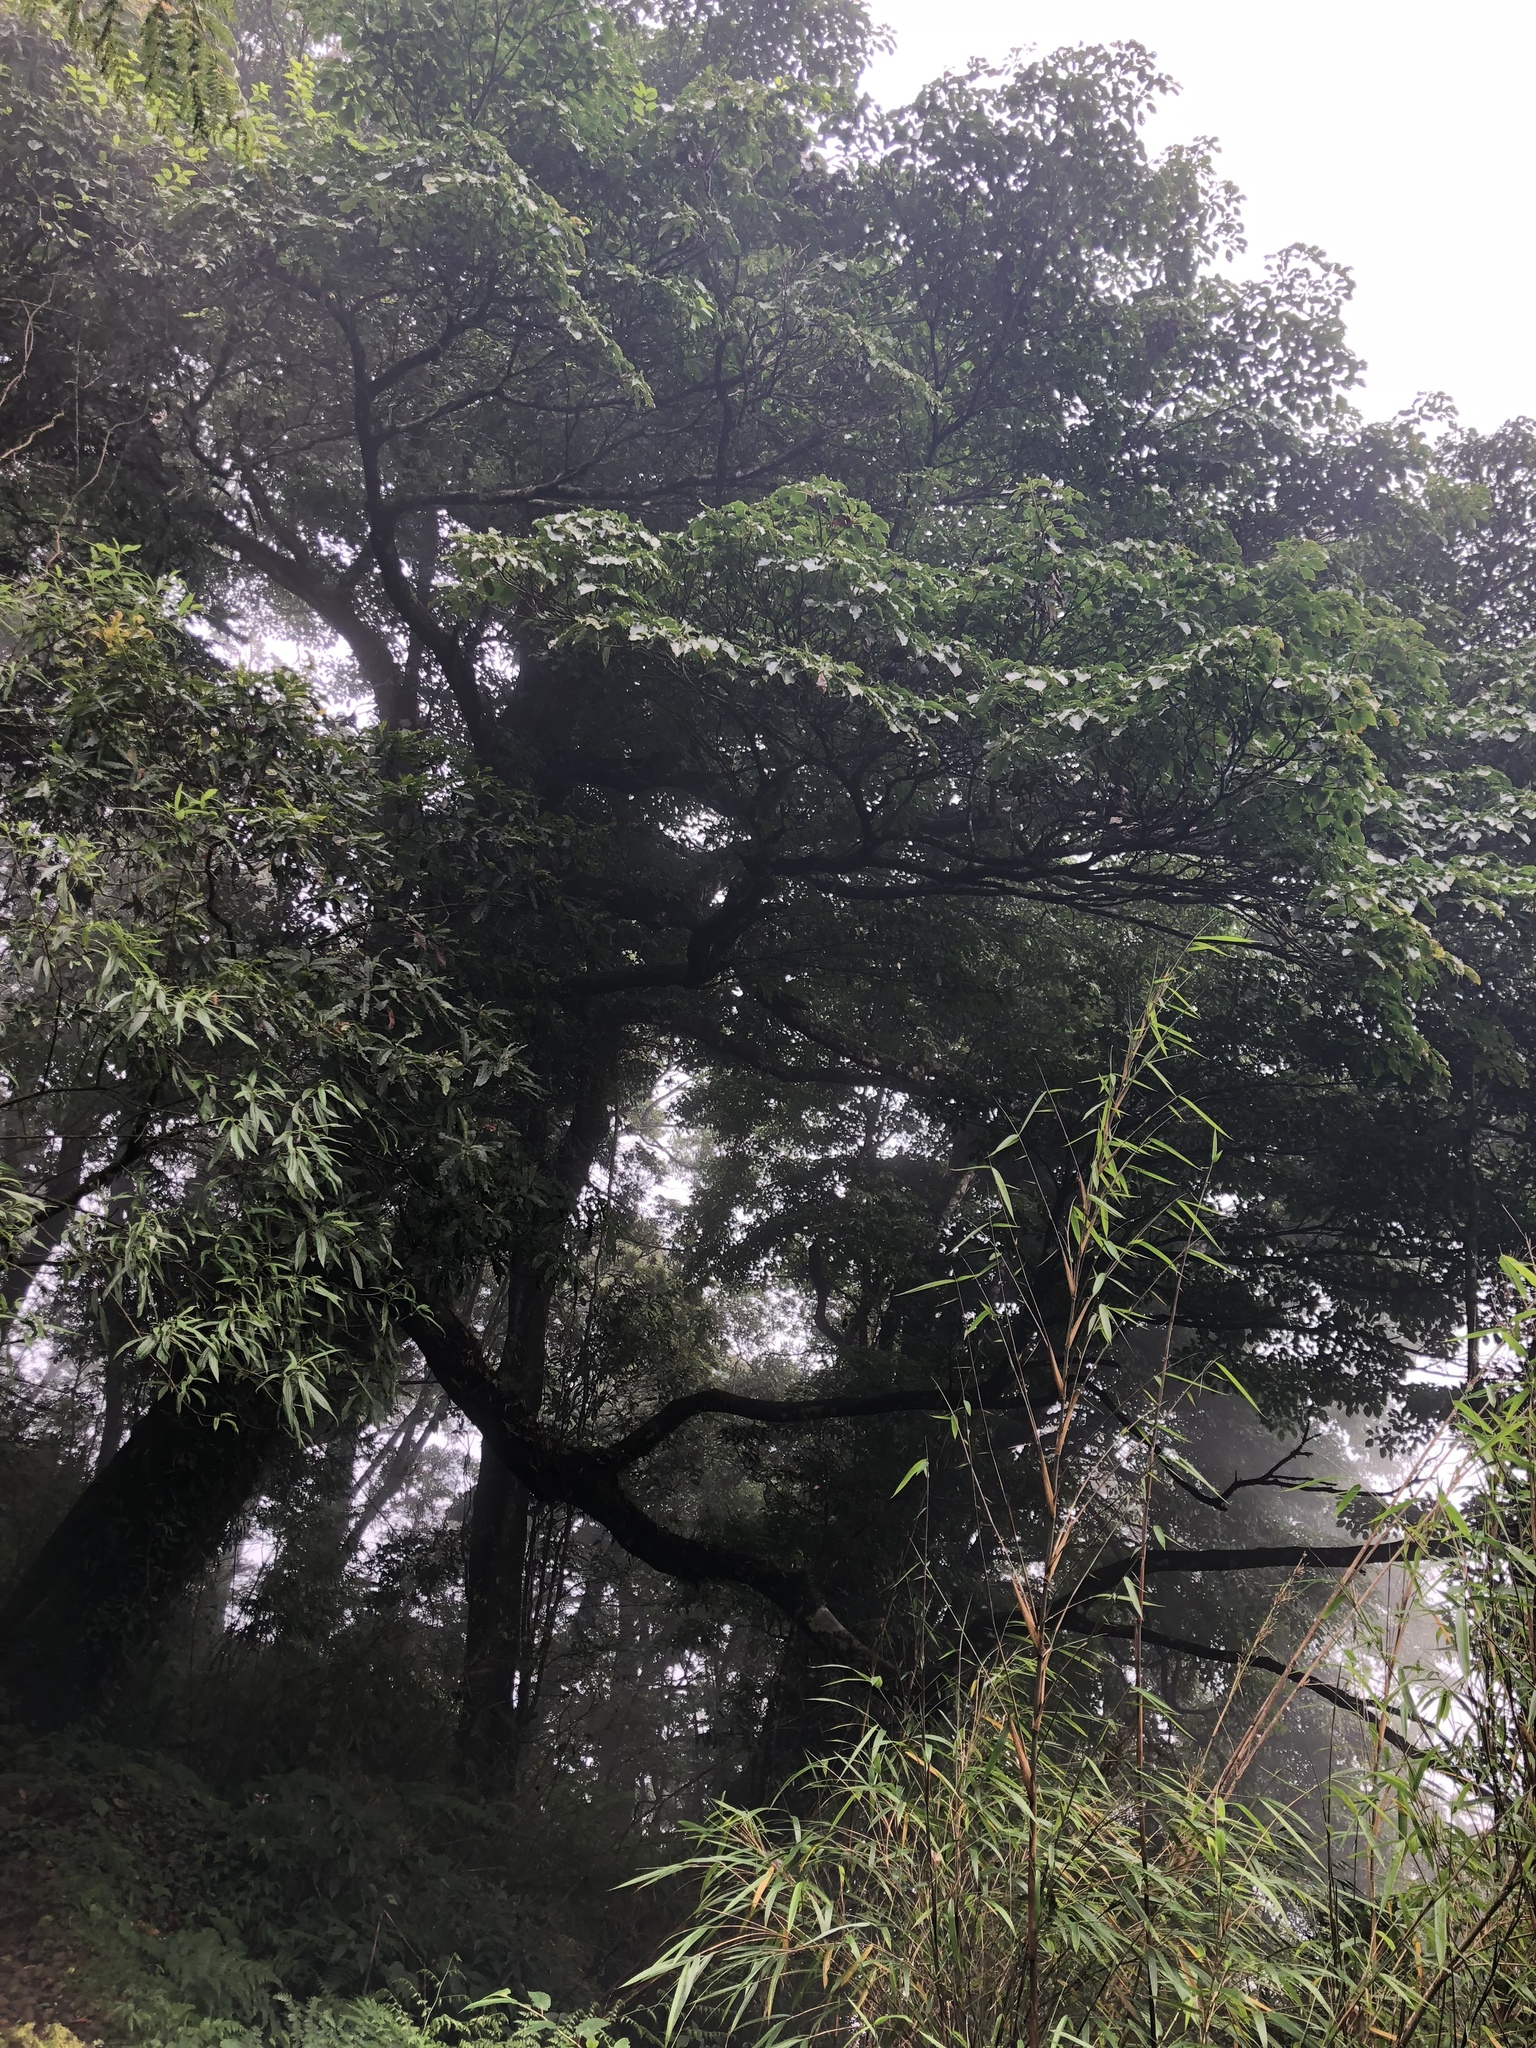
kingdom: Plantae
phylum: Tracheophyta
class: Magnoliopsida
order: Trochodendrales
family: Trochodendraceae
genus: Trochodendron
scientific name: Trochodendron aralioides
